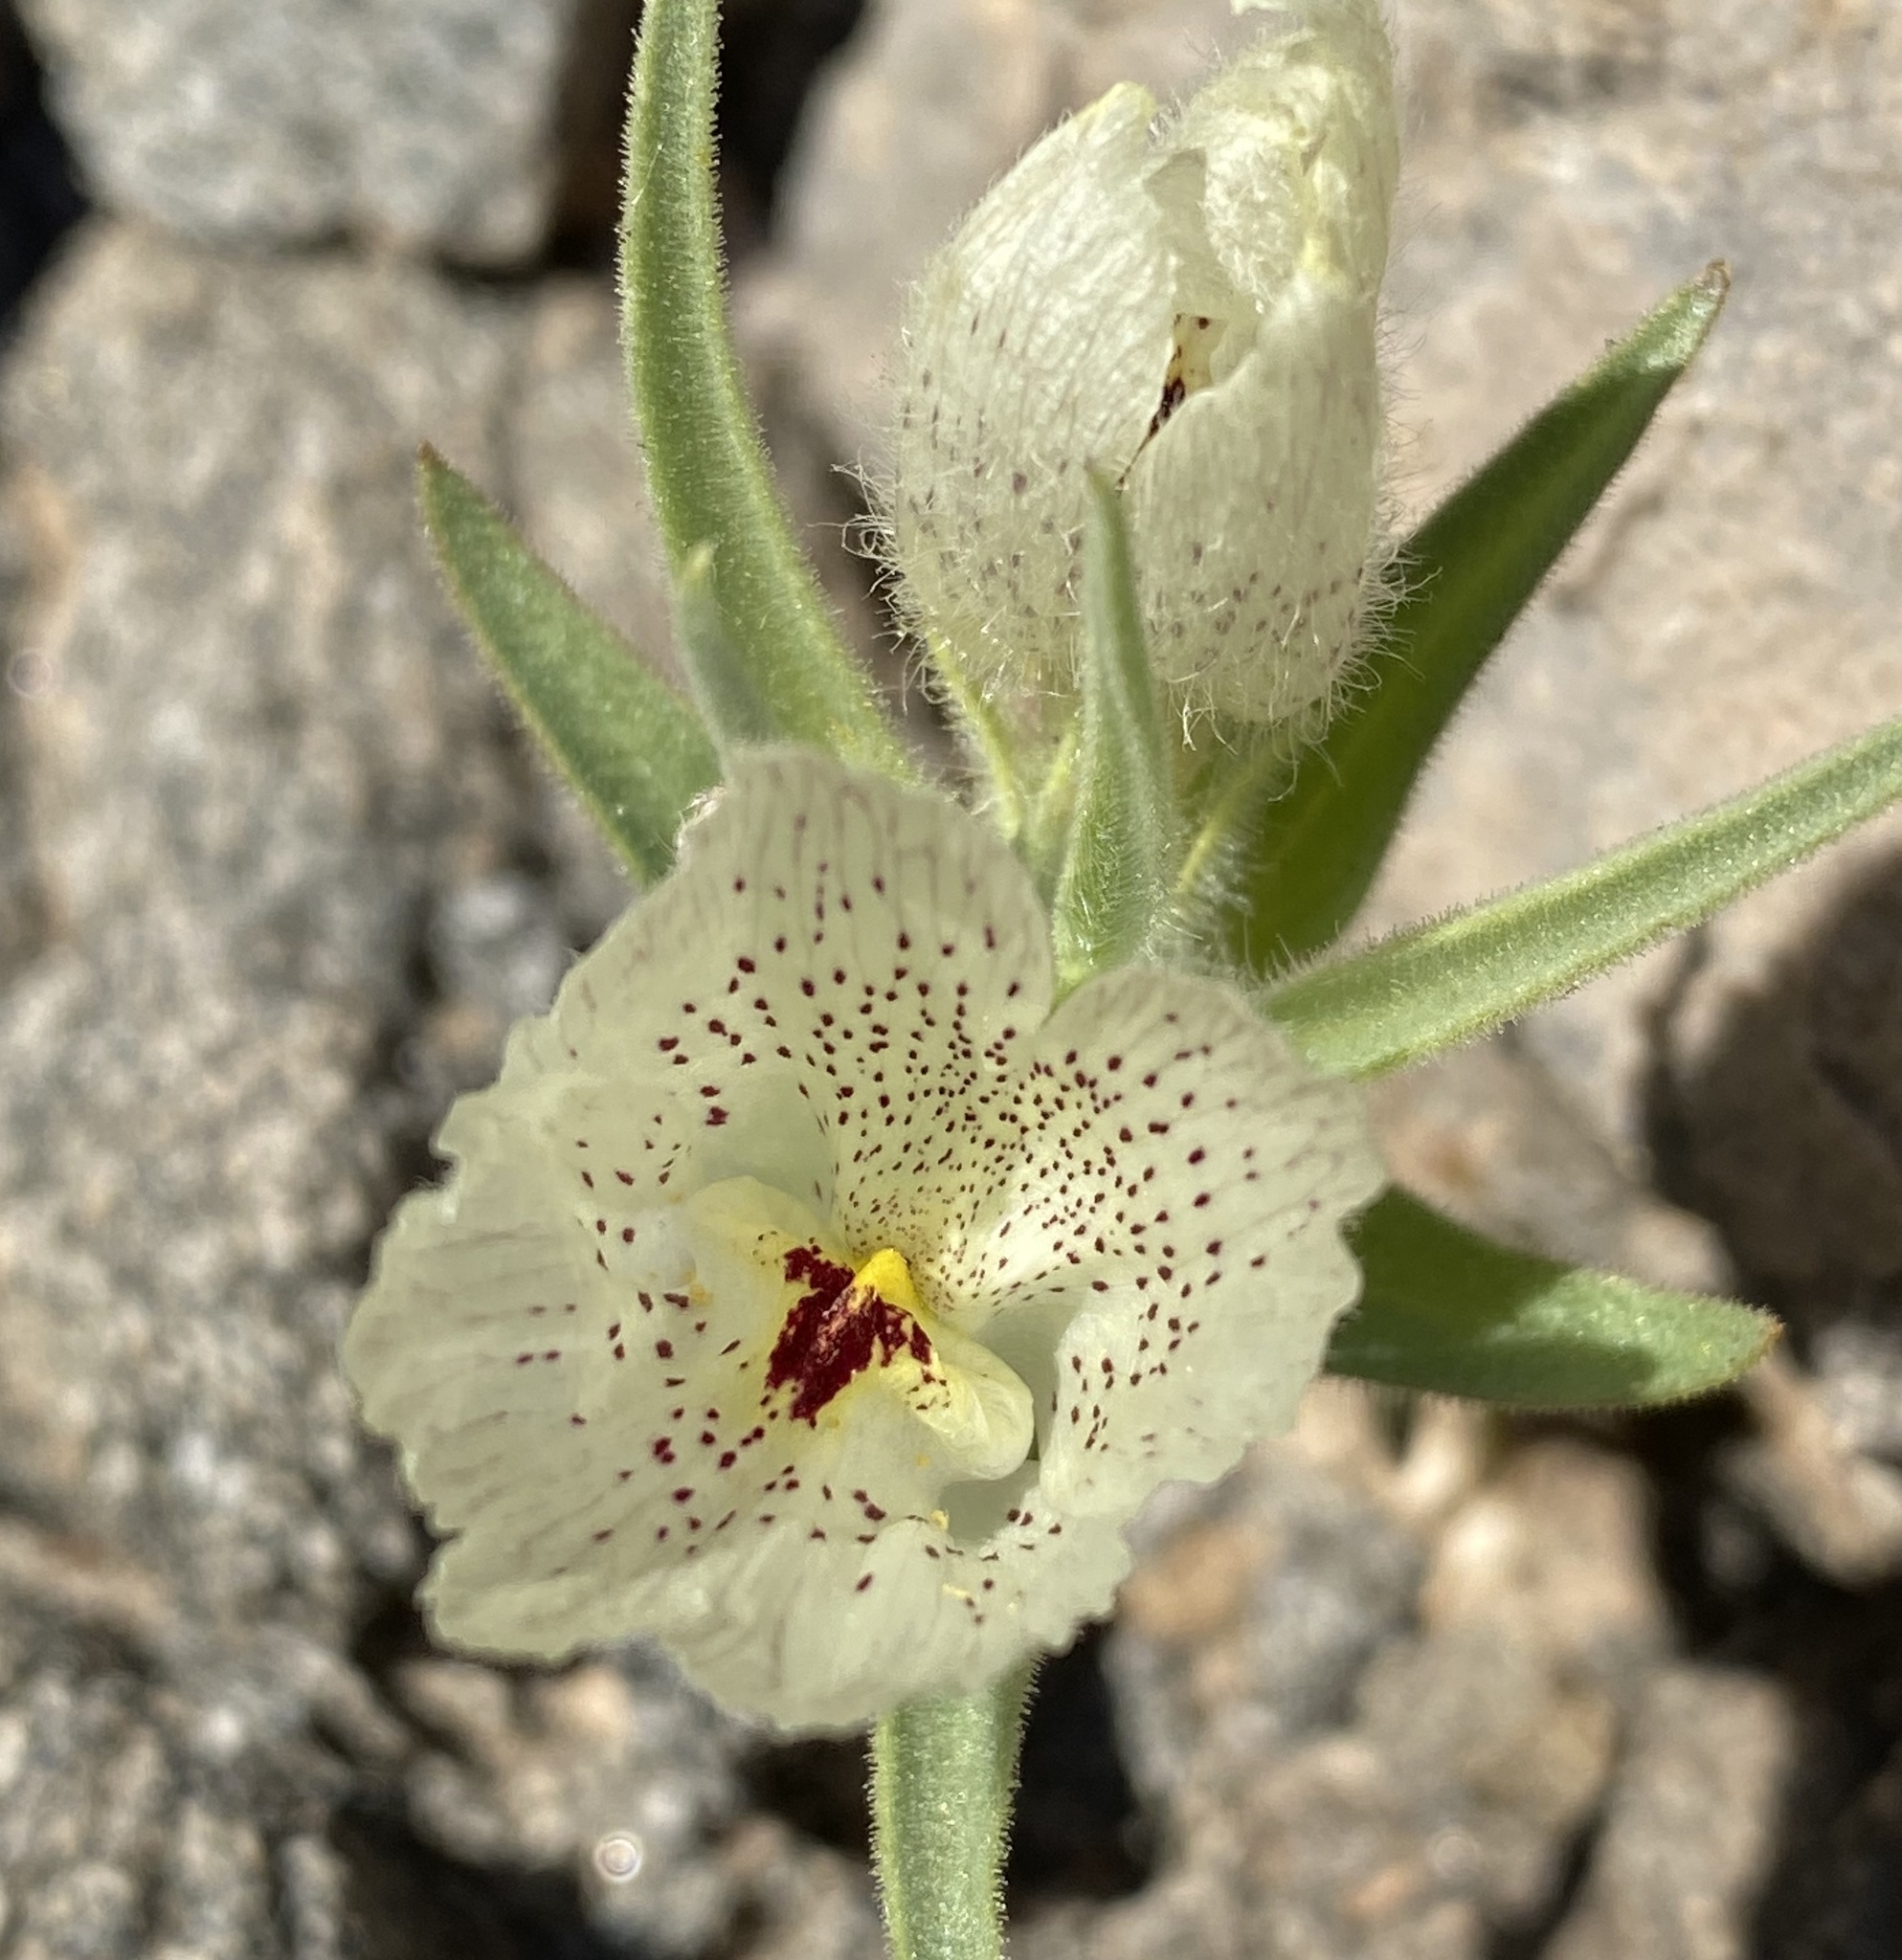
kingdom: Plantae
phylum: Tracheophyta
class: Magnoliopsida
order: Lamiales
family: Plantaginaceae
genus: Mohavea
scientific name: Mohavea confertiflora
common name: Ghost flower
